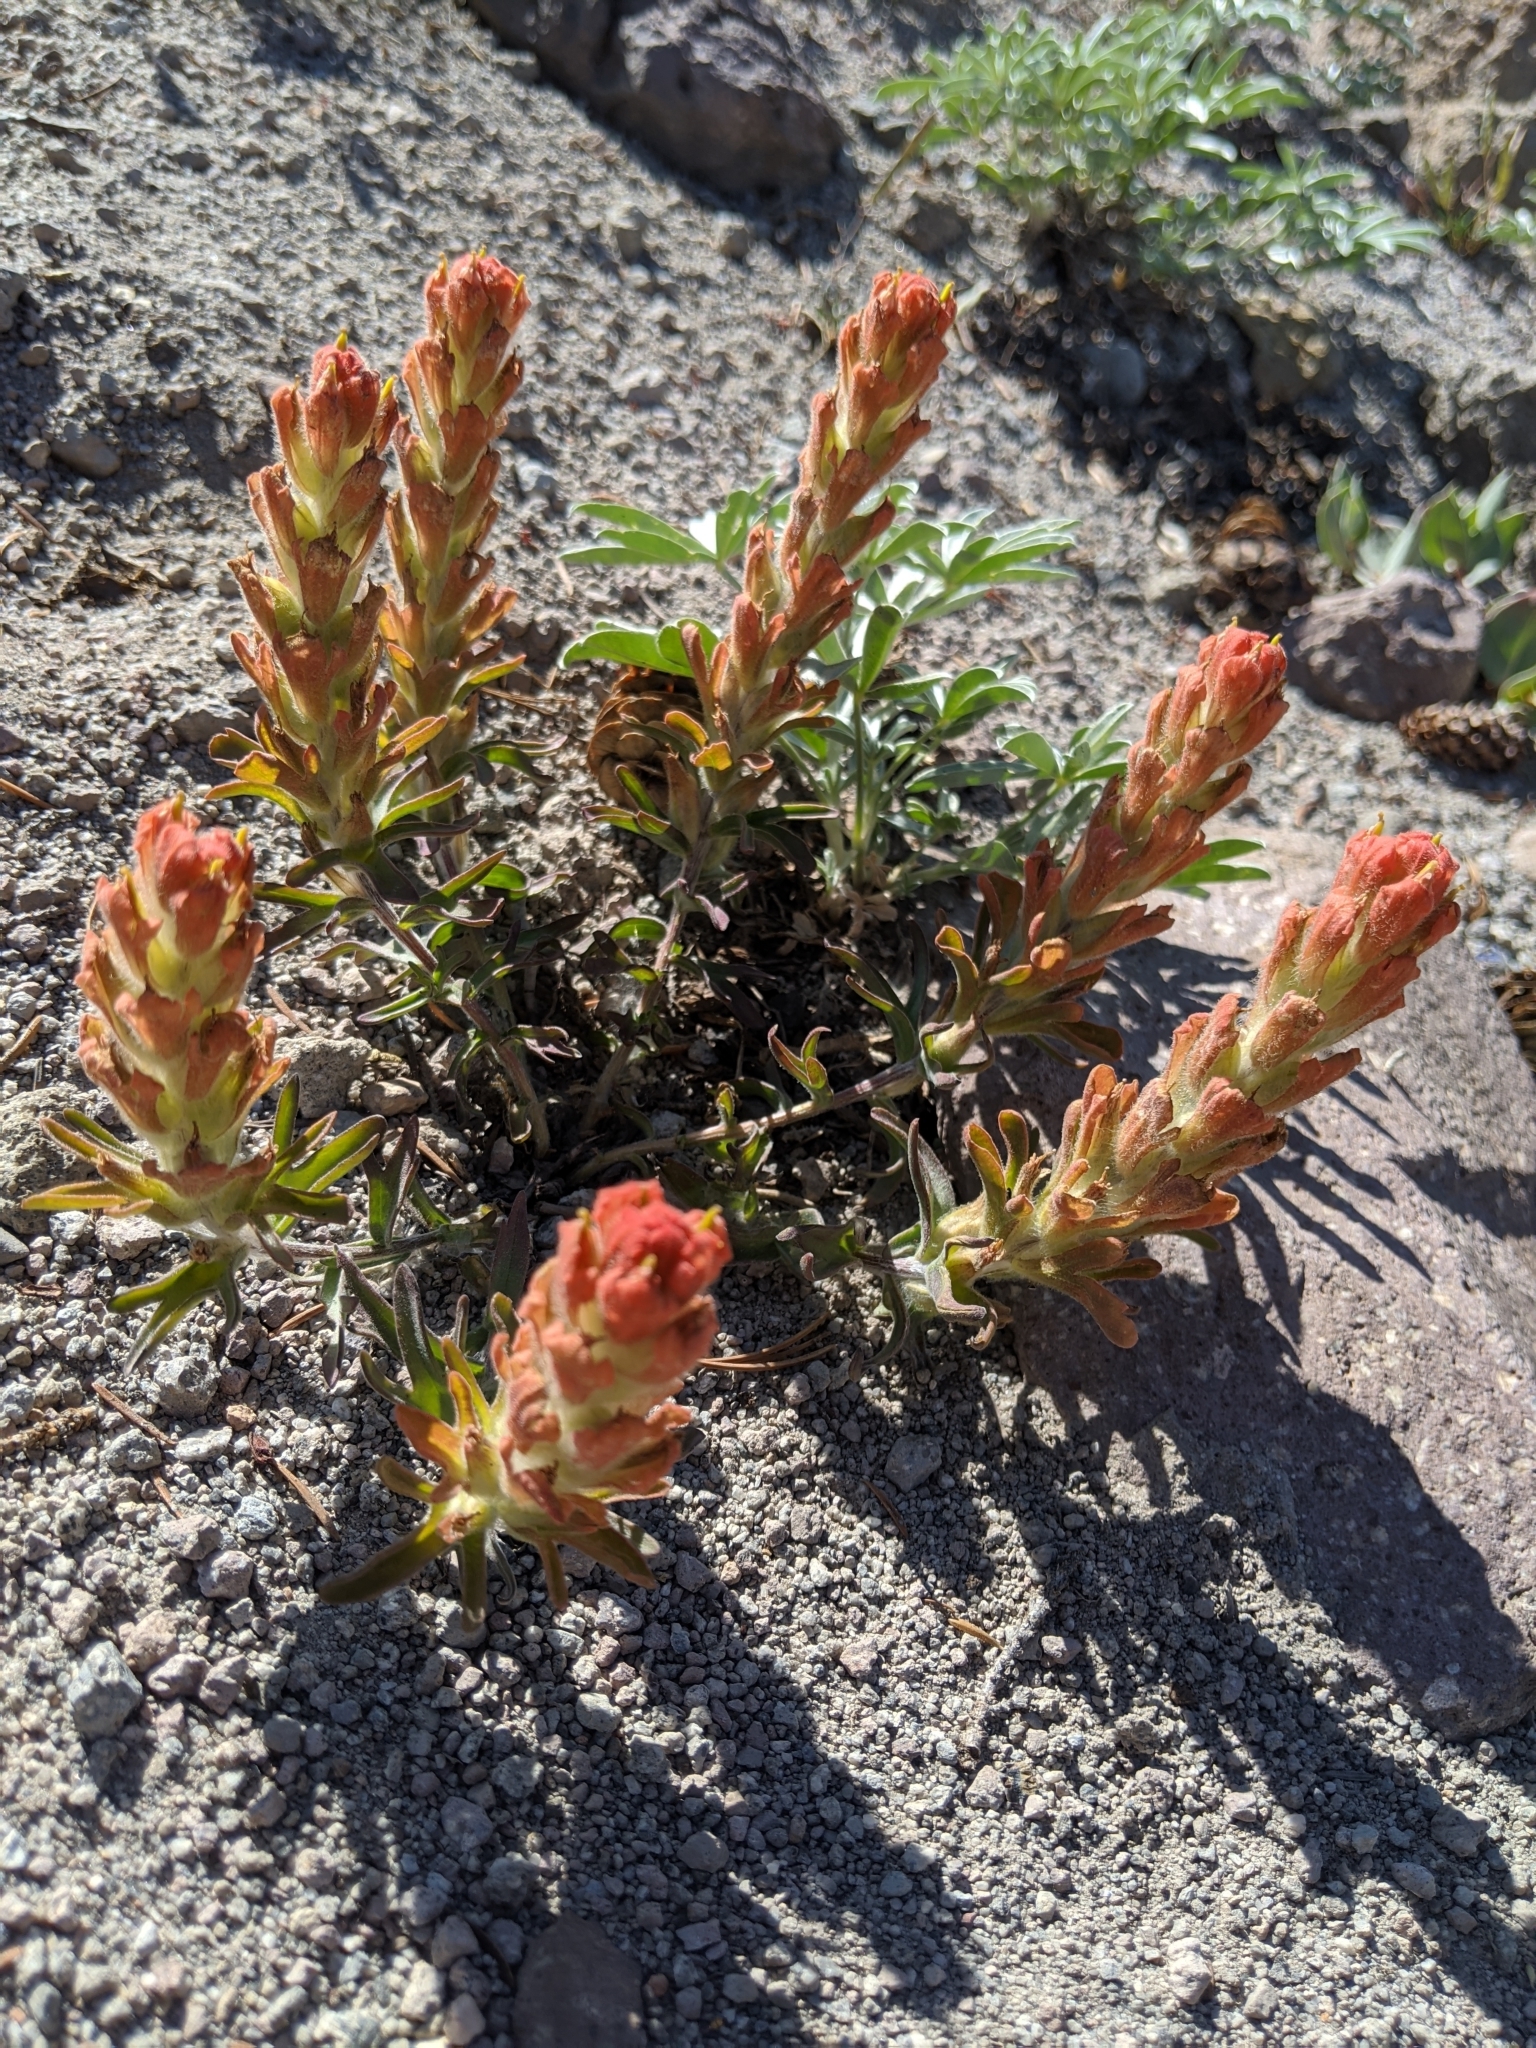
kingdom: Plantae
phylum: Tracheophyta
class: Magnoliopsida
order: Lamiales
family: Orobanchaceae
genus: Castilleja
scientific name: Castilleja arachnoidea
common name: Cobwebby indian paintbrush
